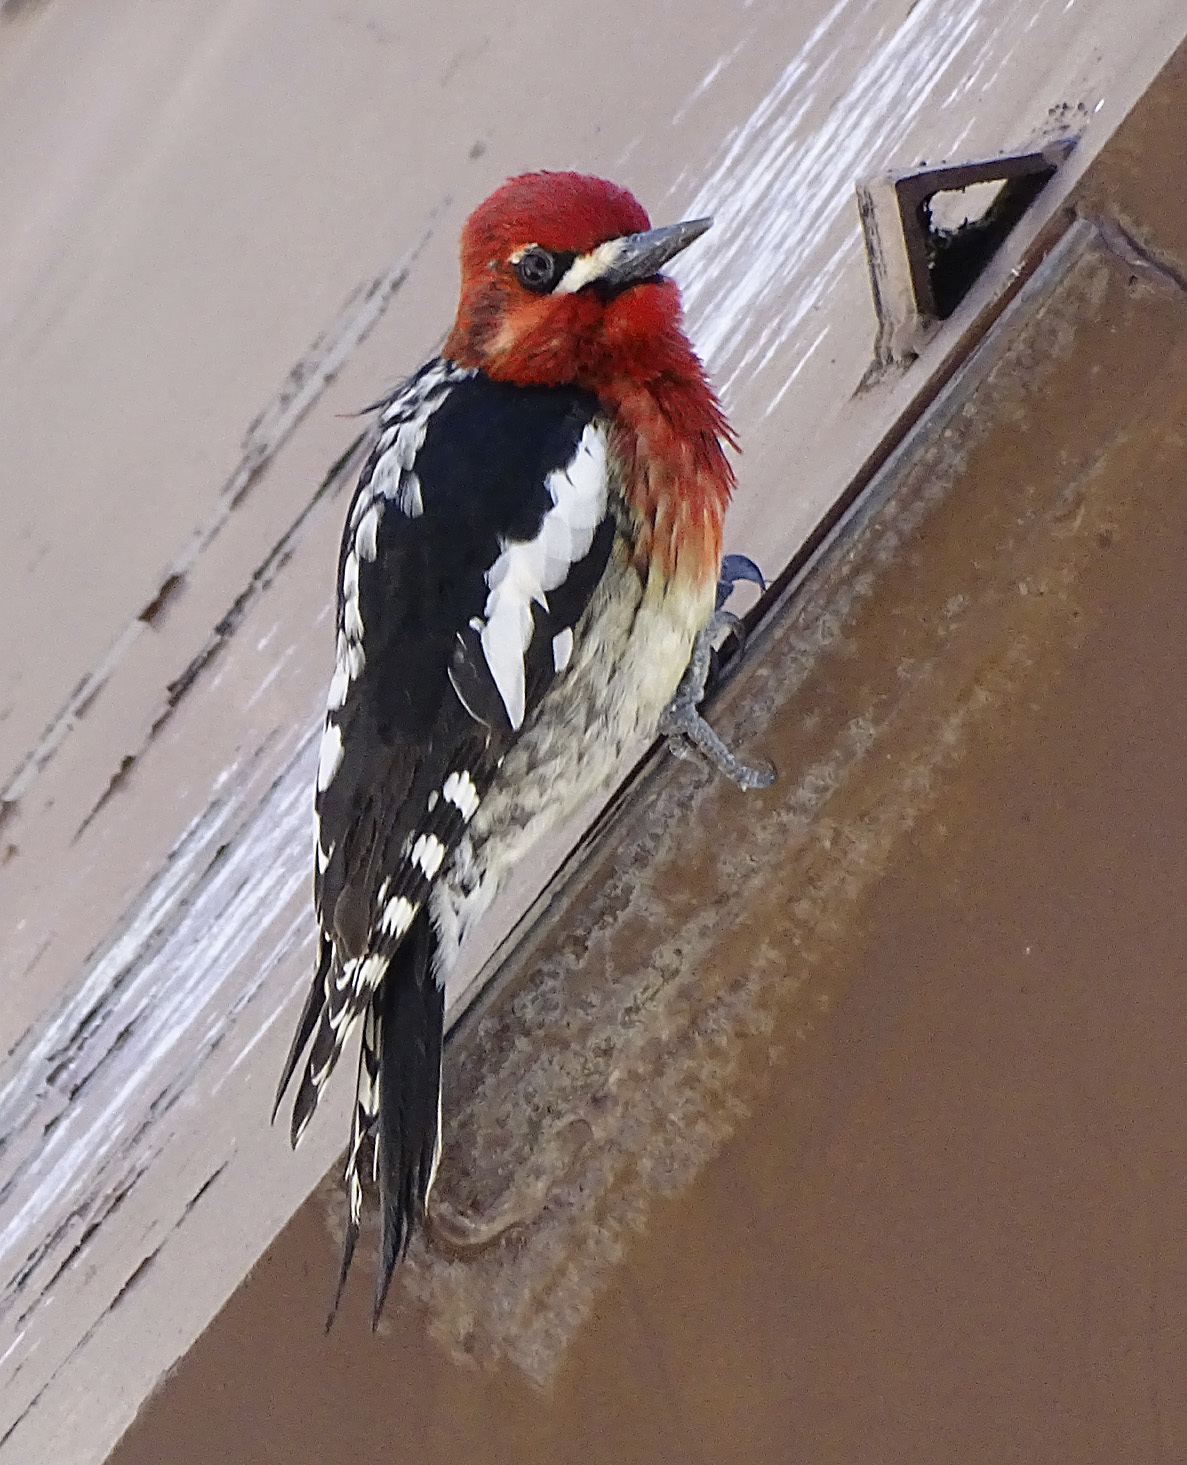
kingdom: Animalia
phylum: Chordata
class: Aves
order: Piciformes
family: Picidae
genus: Sphyrapicus
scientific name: Sphyrapicus ruber
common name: Red-breasted sapsucker
